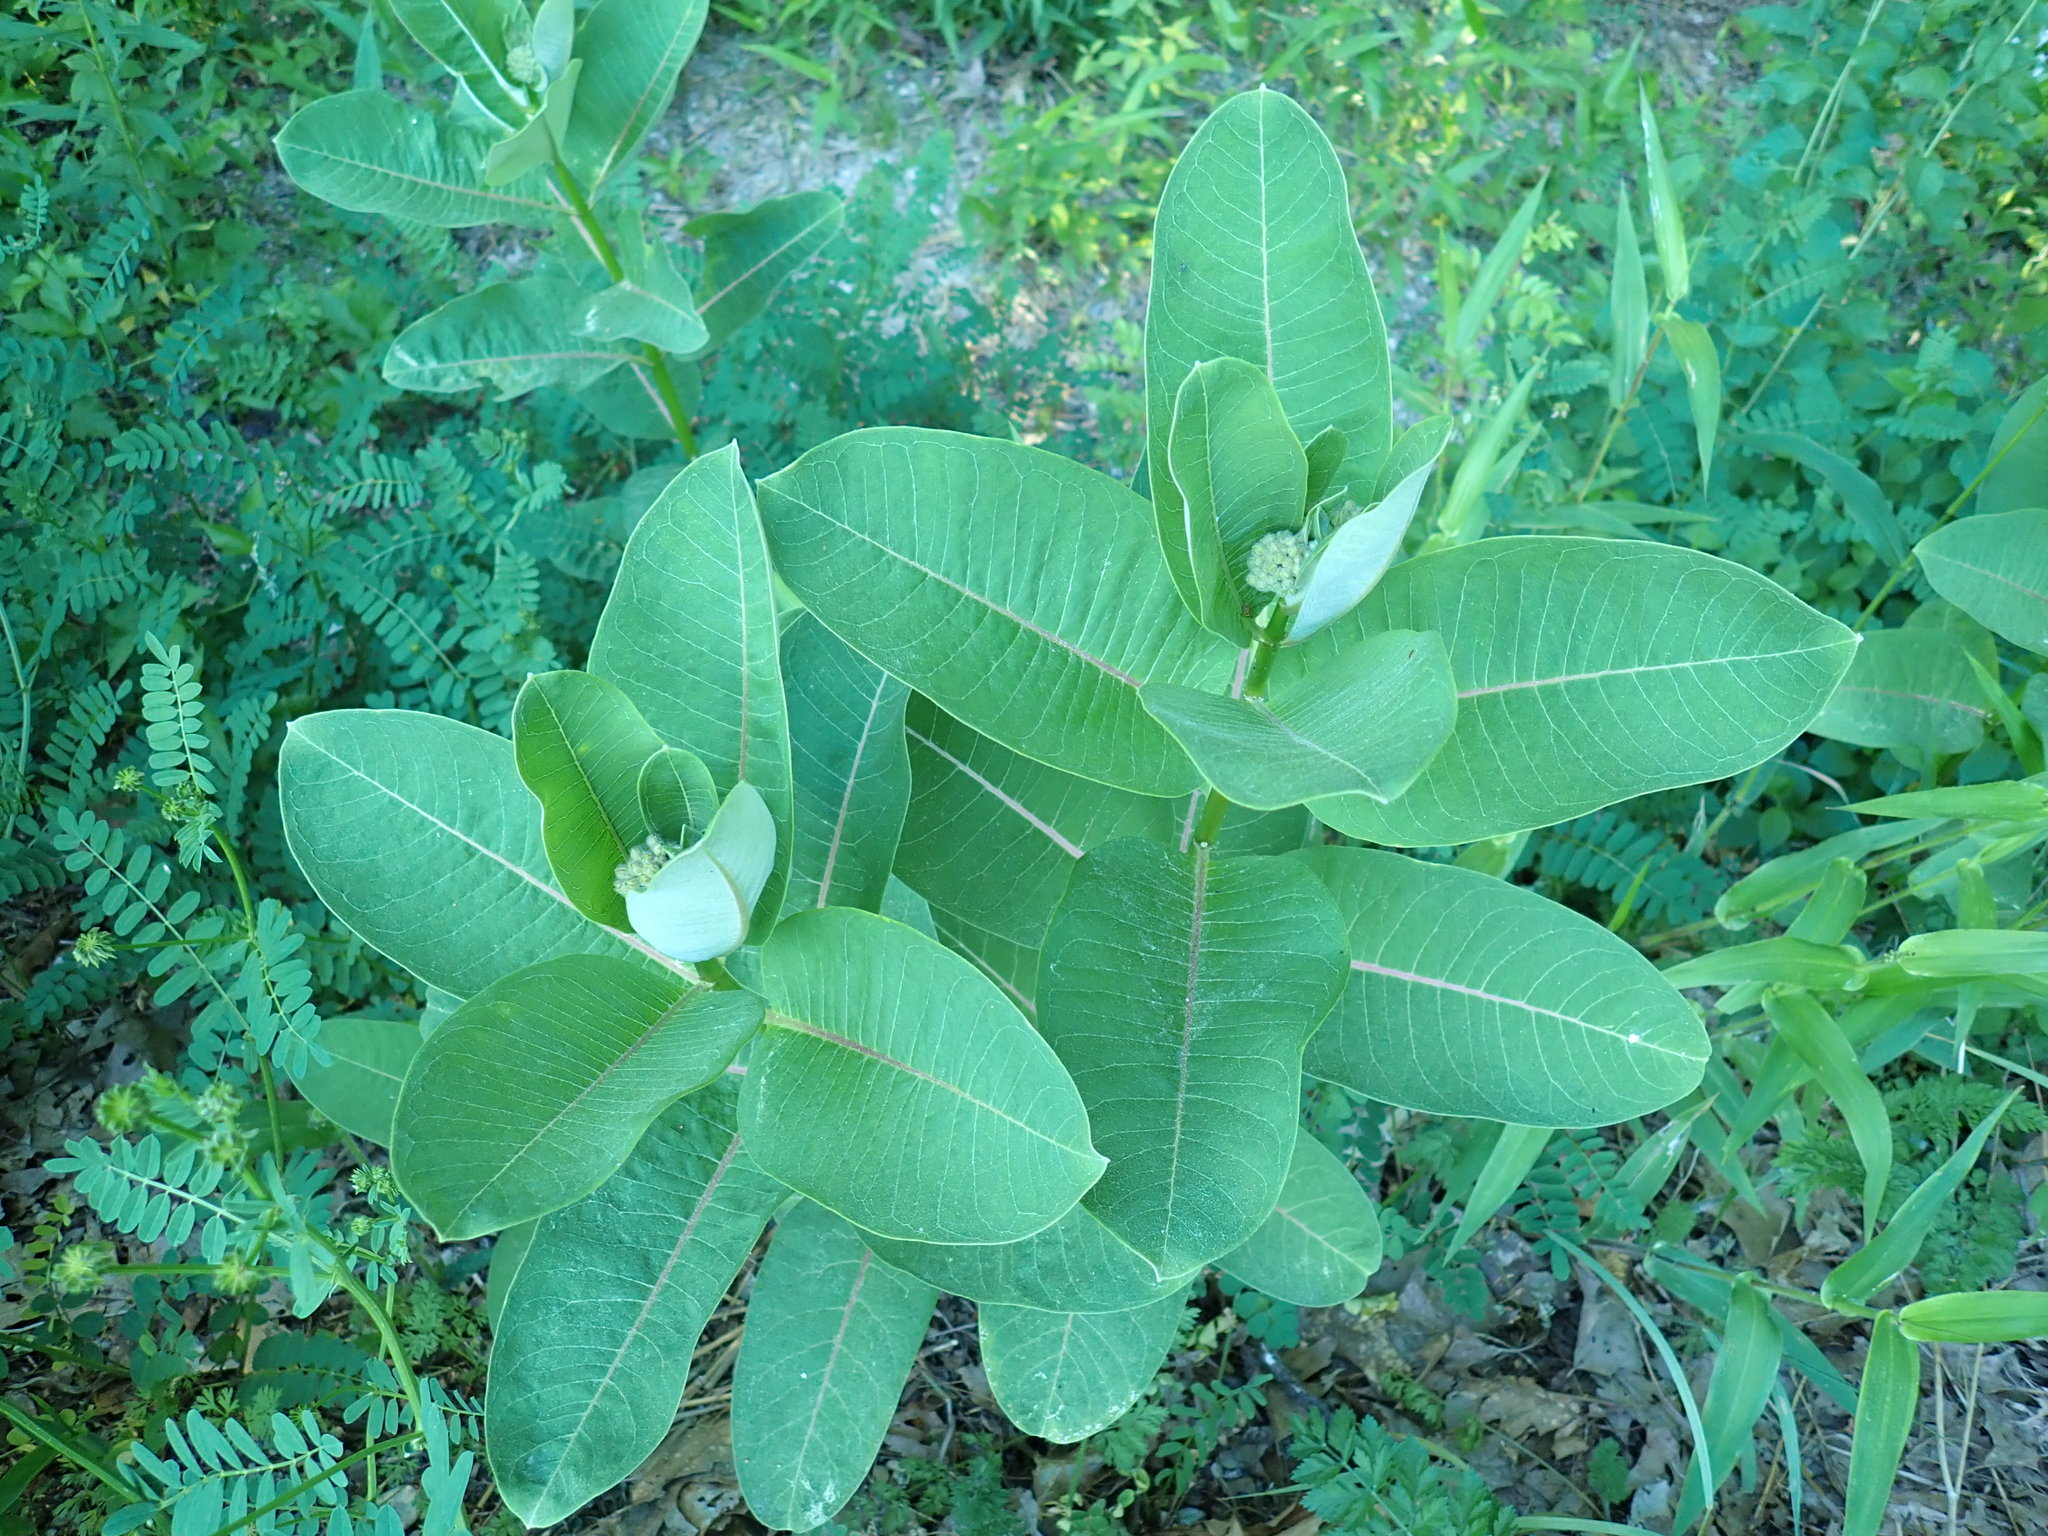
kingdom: Plantae
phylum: Tracheophyta
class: Magnoliopsida
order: Gentianales
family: Apocynaceae
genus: Asclepias
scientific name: Asclepias syriaca
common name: Common milkweed
